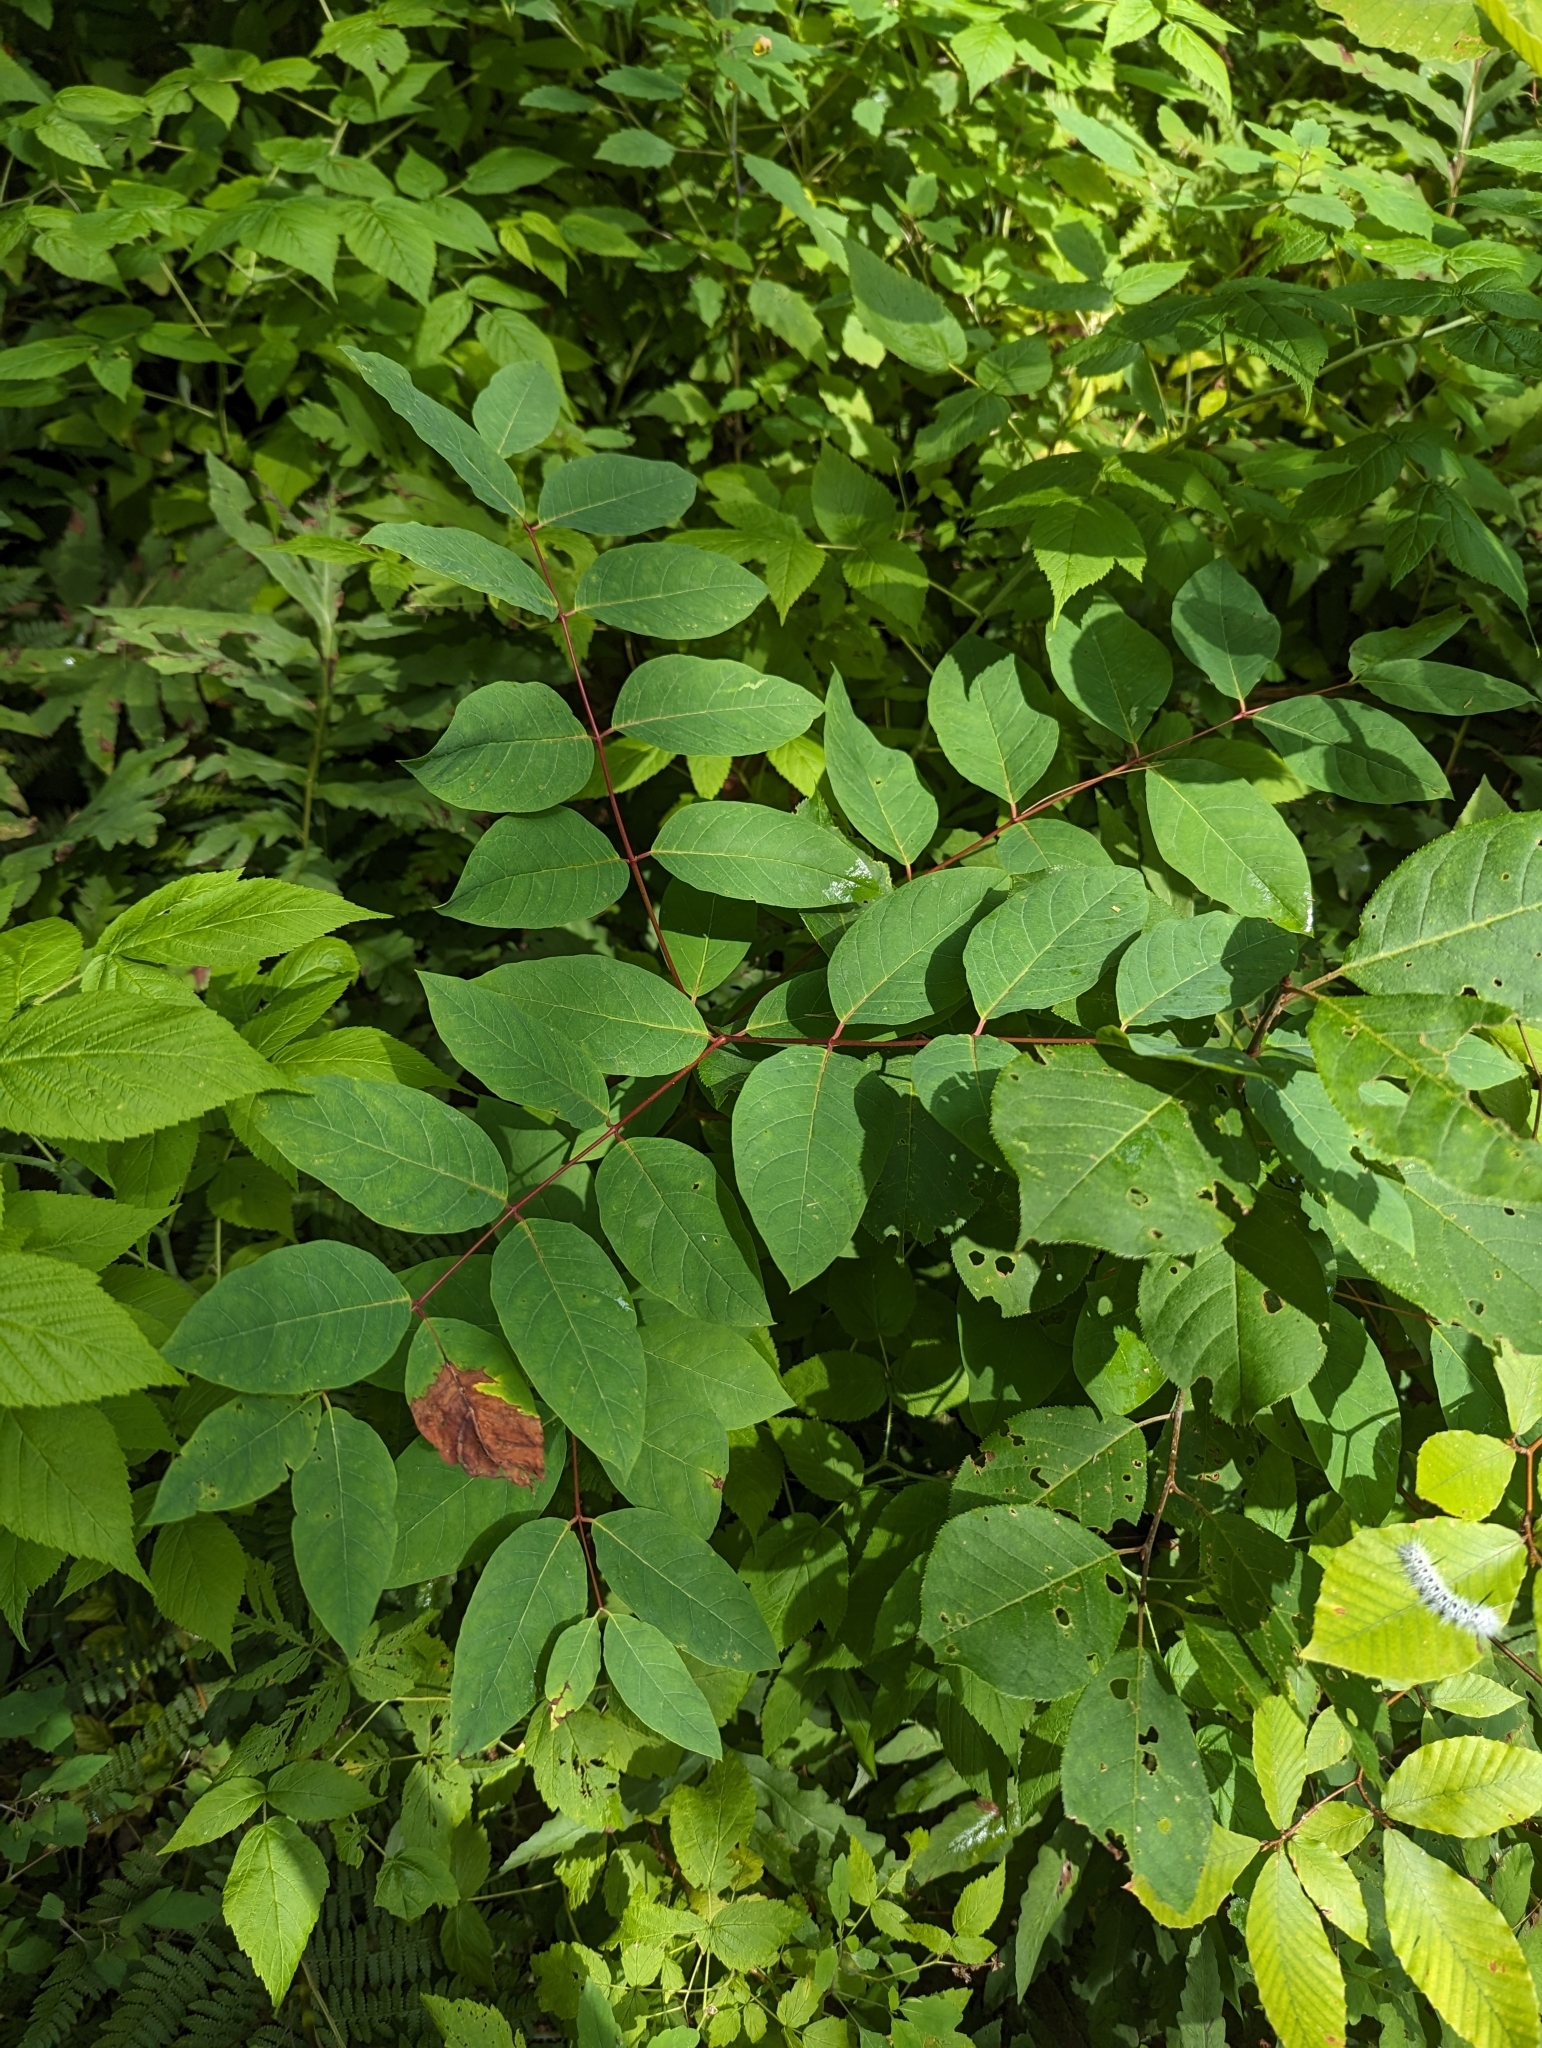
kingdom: Plantae
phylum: Tracheophyta
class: Magnoliopsida
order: Gentianales
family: Apocynaceae
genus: Apocynum
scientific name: Apocynum androsaemifolium
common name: Spreading dogbane
